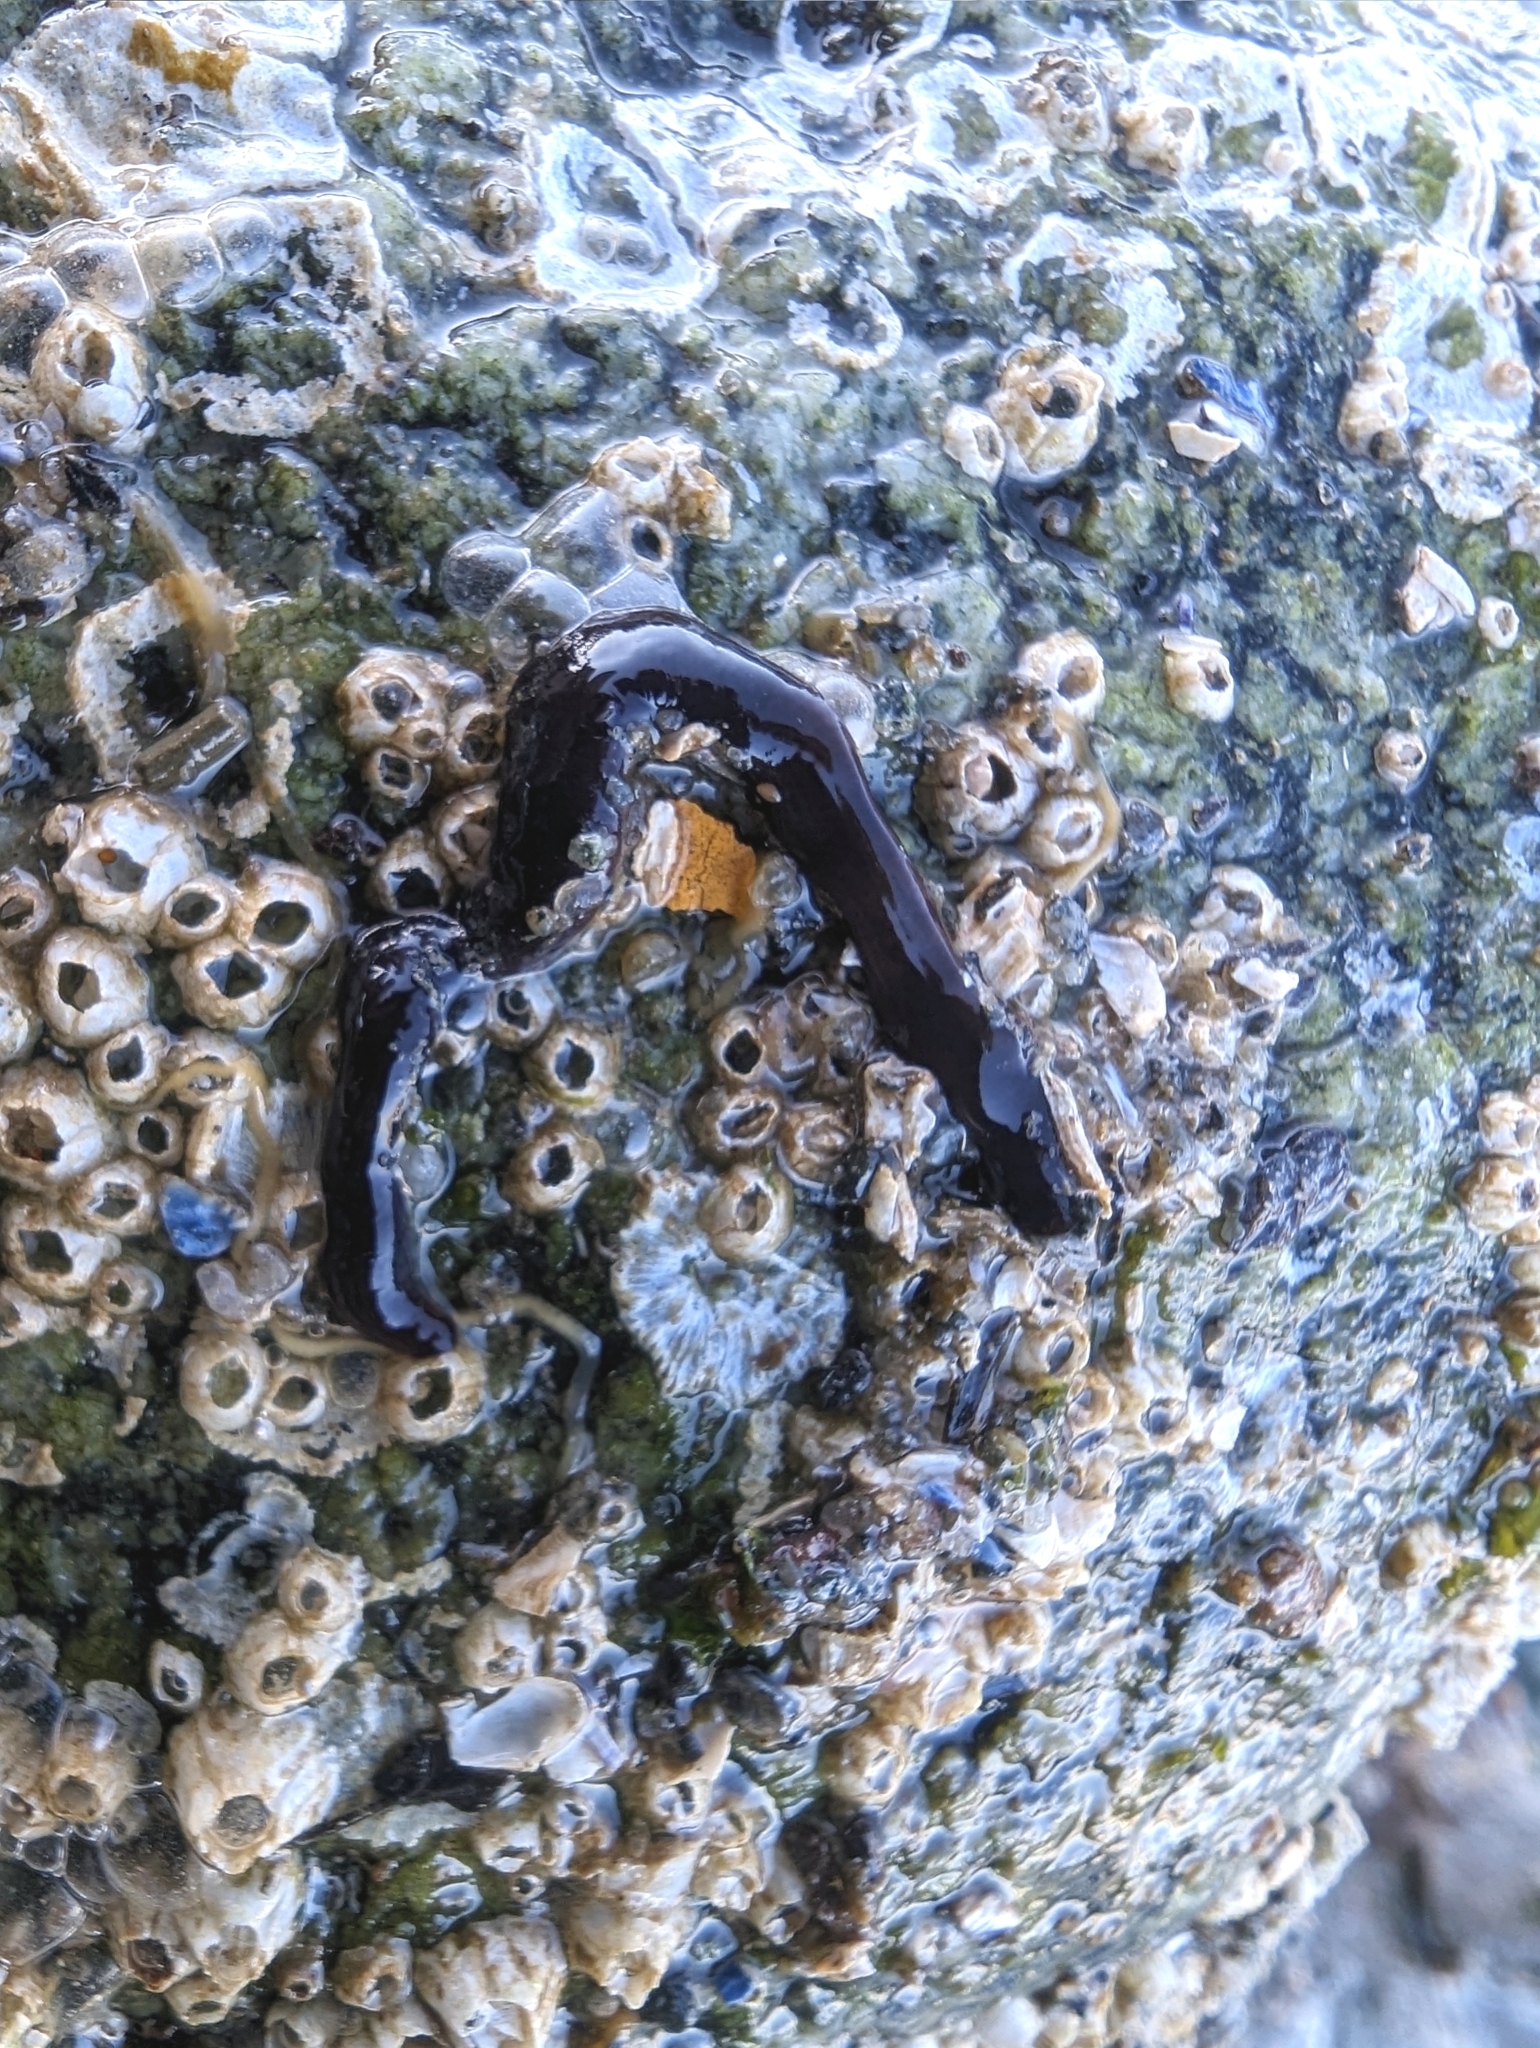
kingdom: Animalia
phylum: Nemertea
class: Hoplonemertea
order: Monostilifera
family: Neesiidae
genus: Paranemertes
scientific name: Paranemertes peregrina
